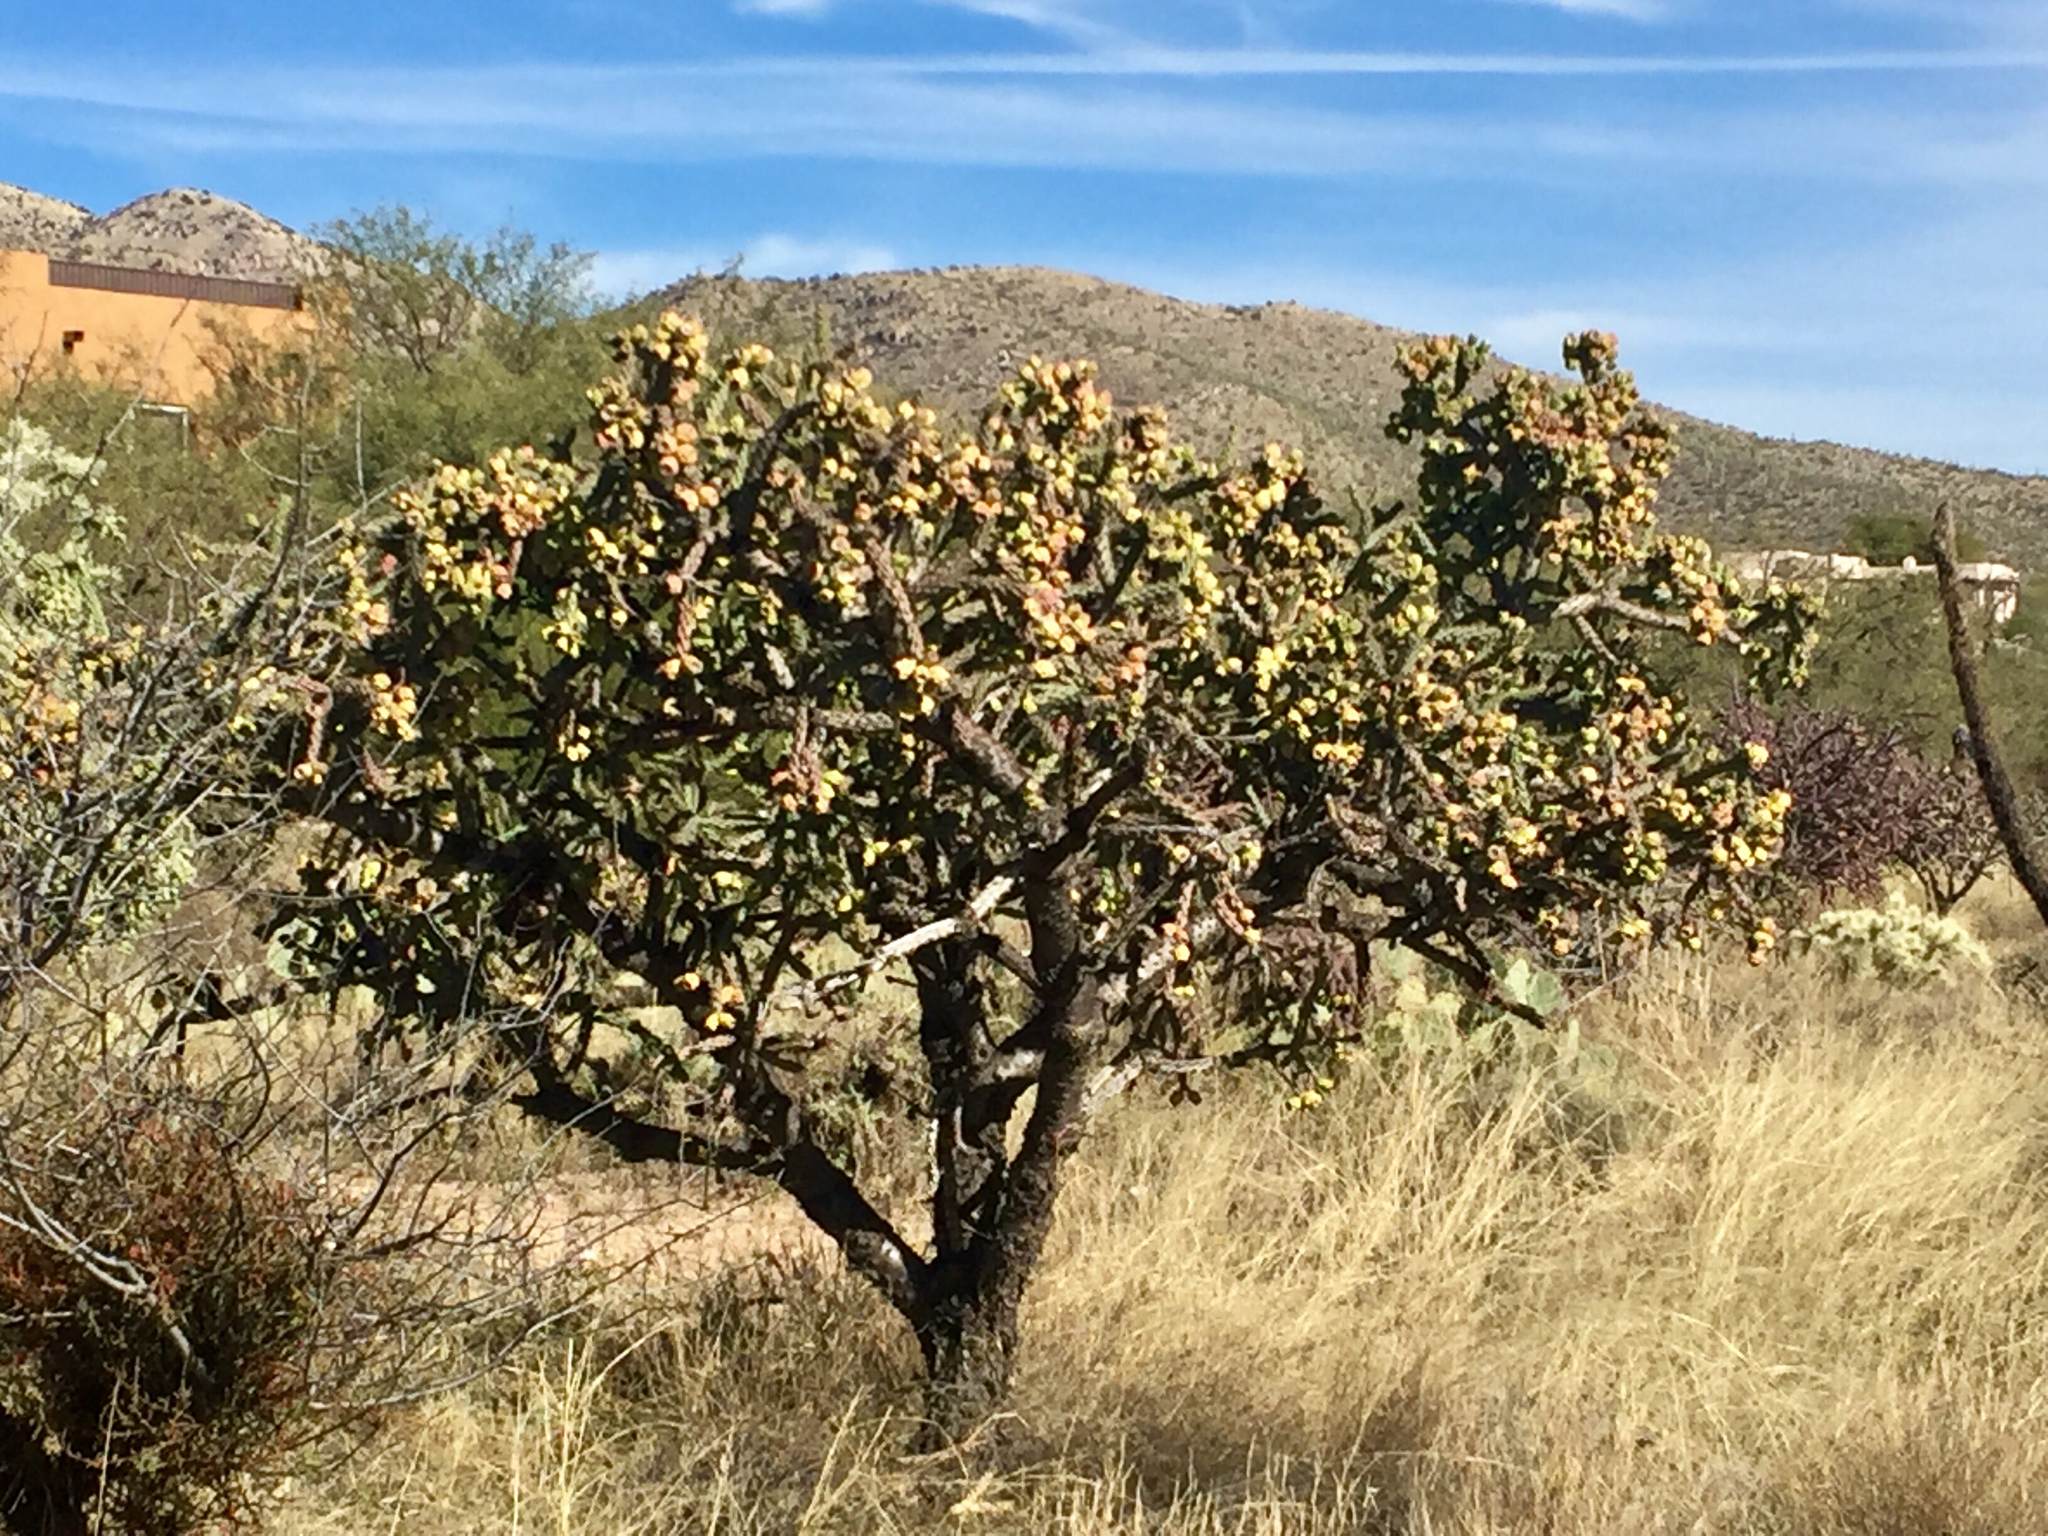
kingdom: Plantae
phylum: Tracheophyta
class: Magnoliopsida
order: Caryophyllales
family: Cactaceae
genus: Cylindropuntia
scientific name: Cylindropuntia thurberi
